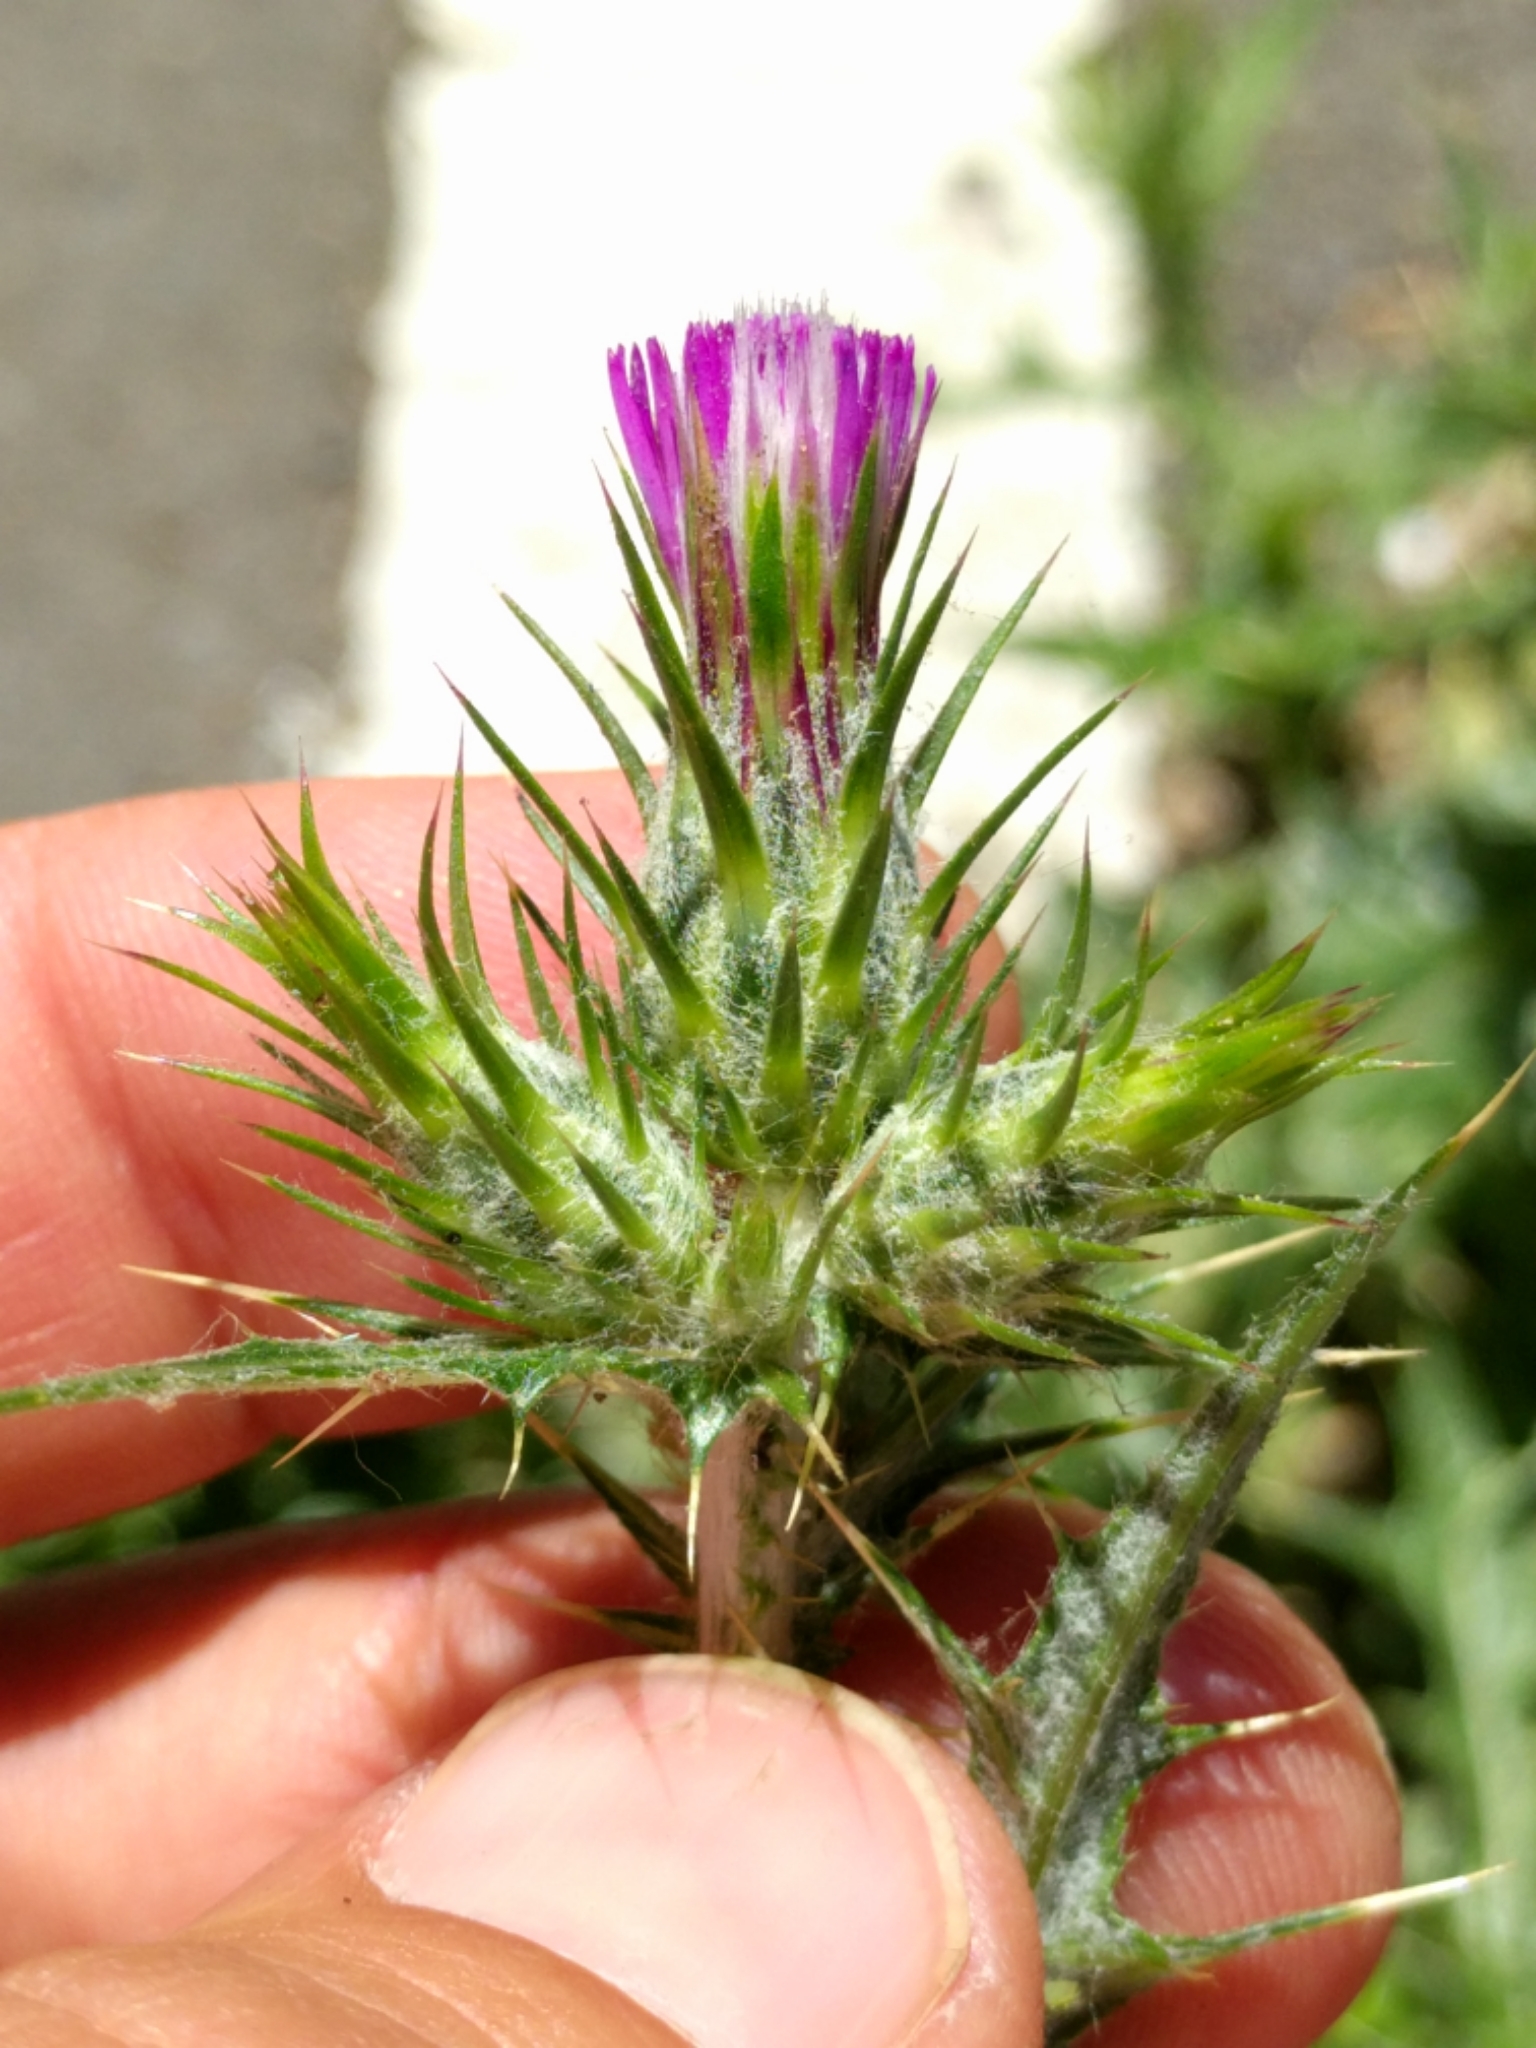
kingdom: Plantae
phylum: Tracheophyta
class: Magnoliopsida
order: Asterales
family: Asteraceae
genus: Carduus
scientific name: Carduus pycnocephalus
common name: Plymouth thistle
